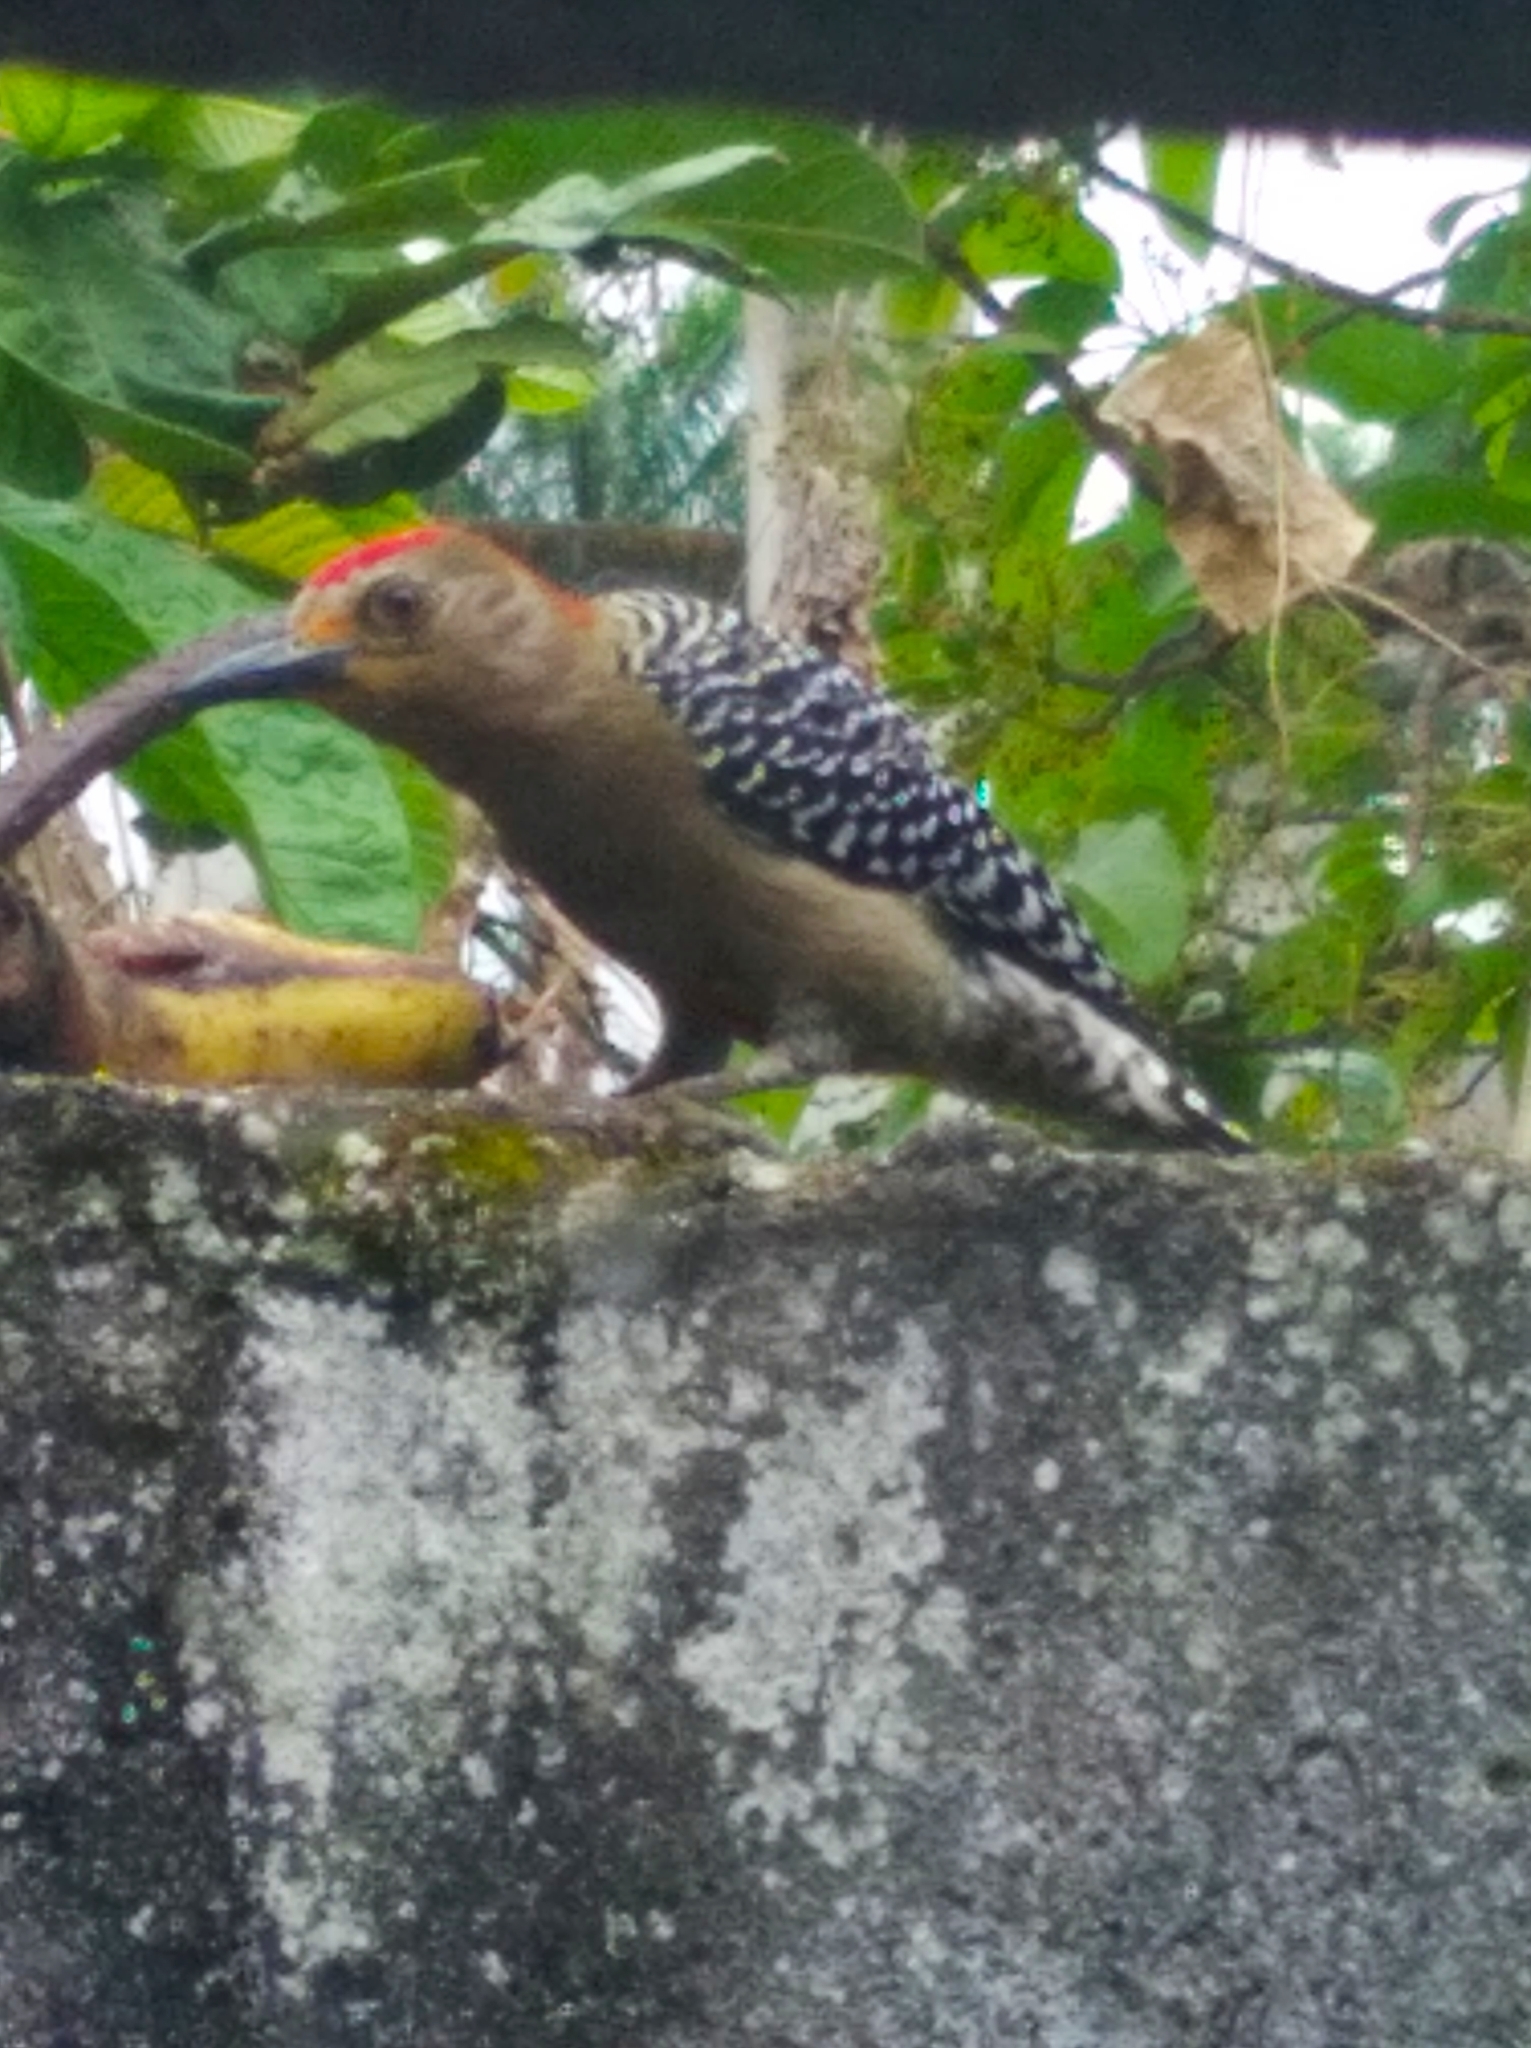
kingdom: Animalia
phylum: Chordata
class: Aves
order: Piciformes
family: Picidae
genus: Melanerpes
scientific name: Melanerpes rubricapillus
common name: Red-crowned woodpecker
